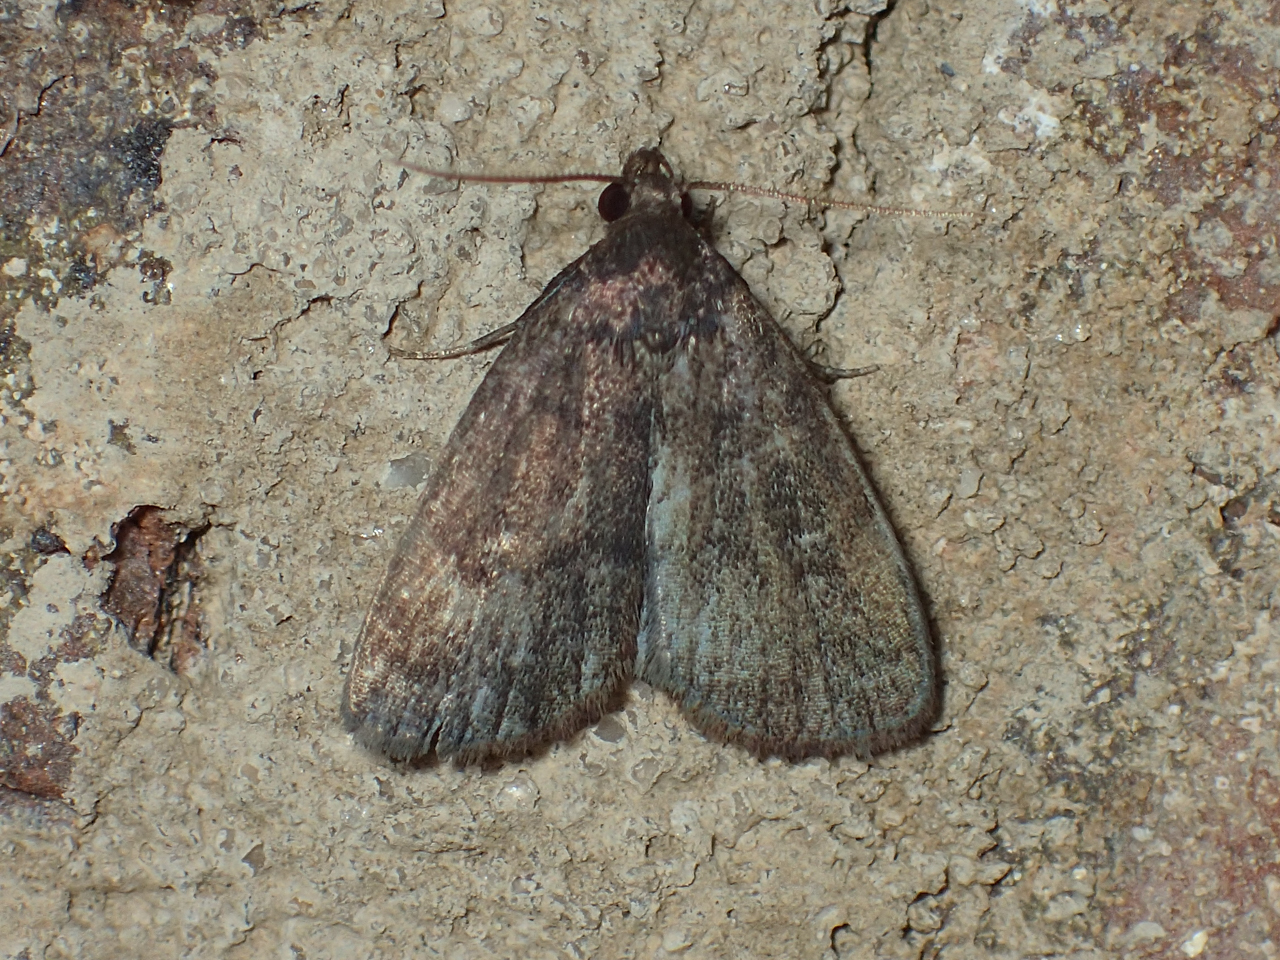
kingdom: Animalia
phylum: Arthropoda
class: Insecta
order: Lepidoptera
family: Erebidae
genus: Idia
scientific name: Idia rotundalis
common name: Rotund idia moth
